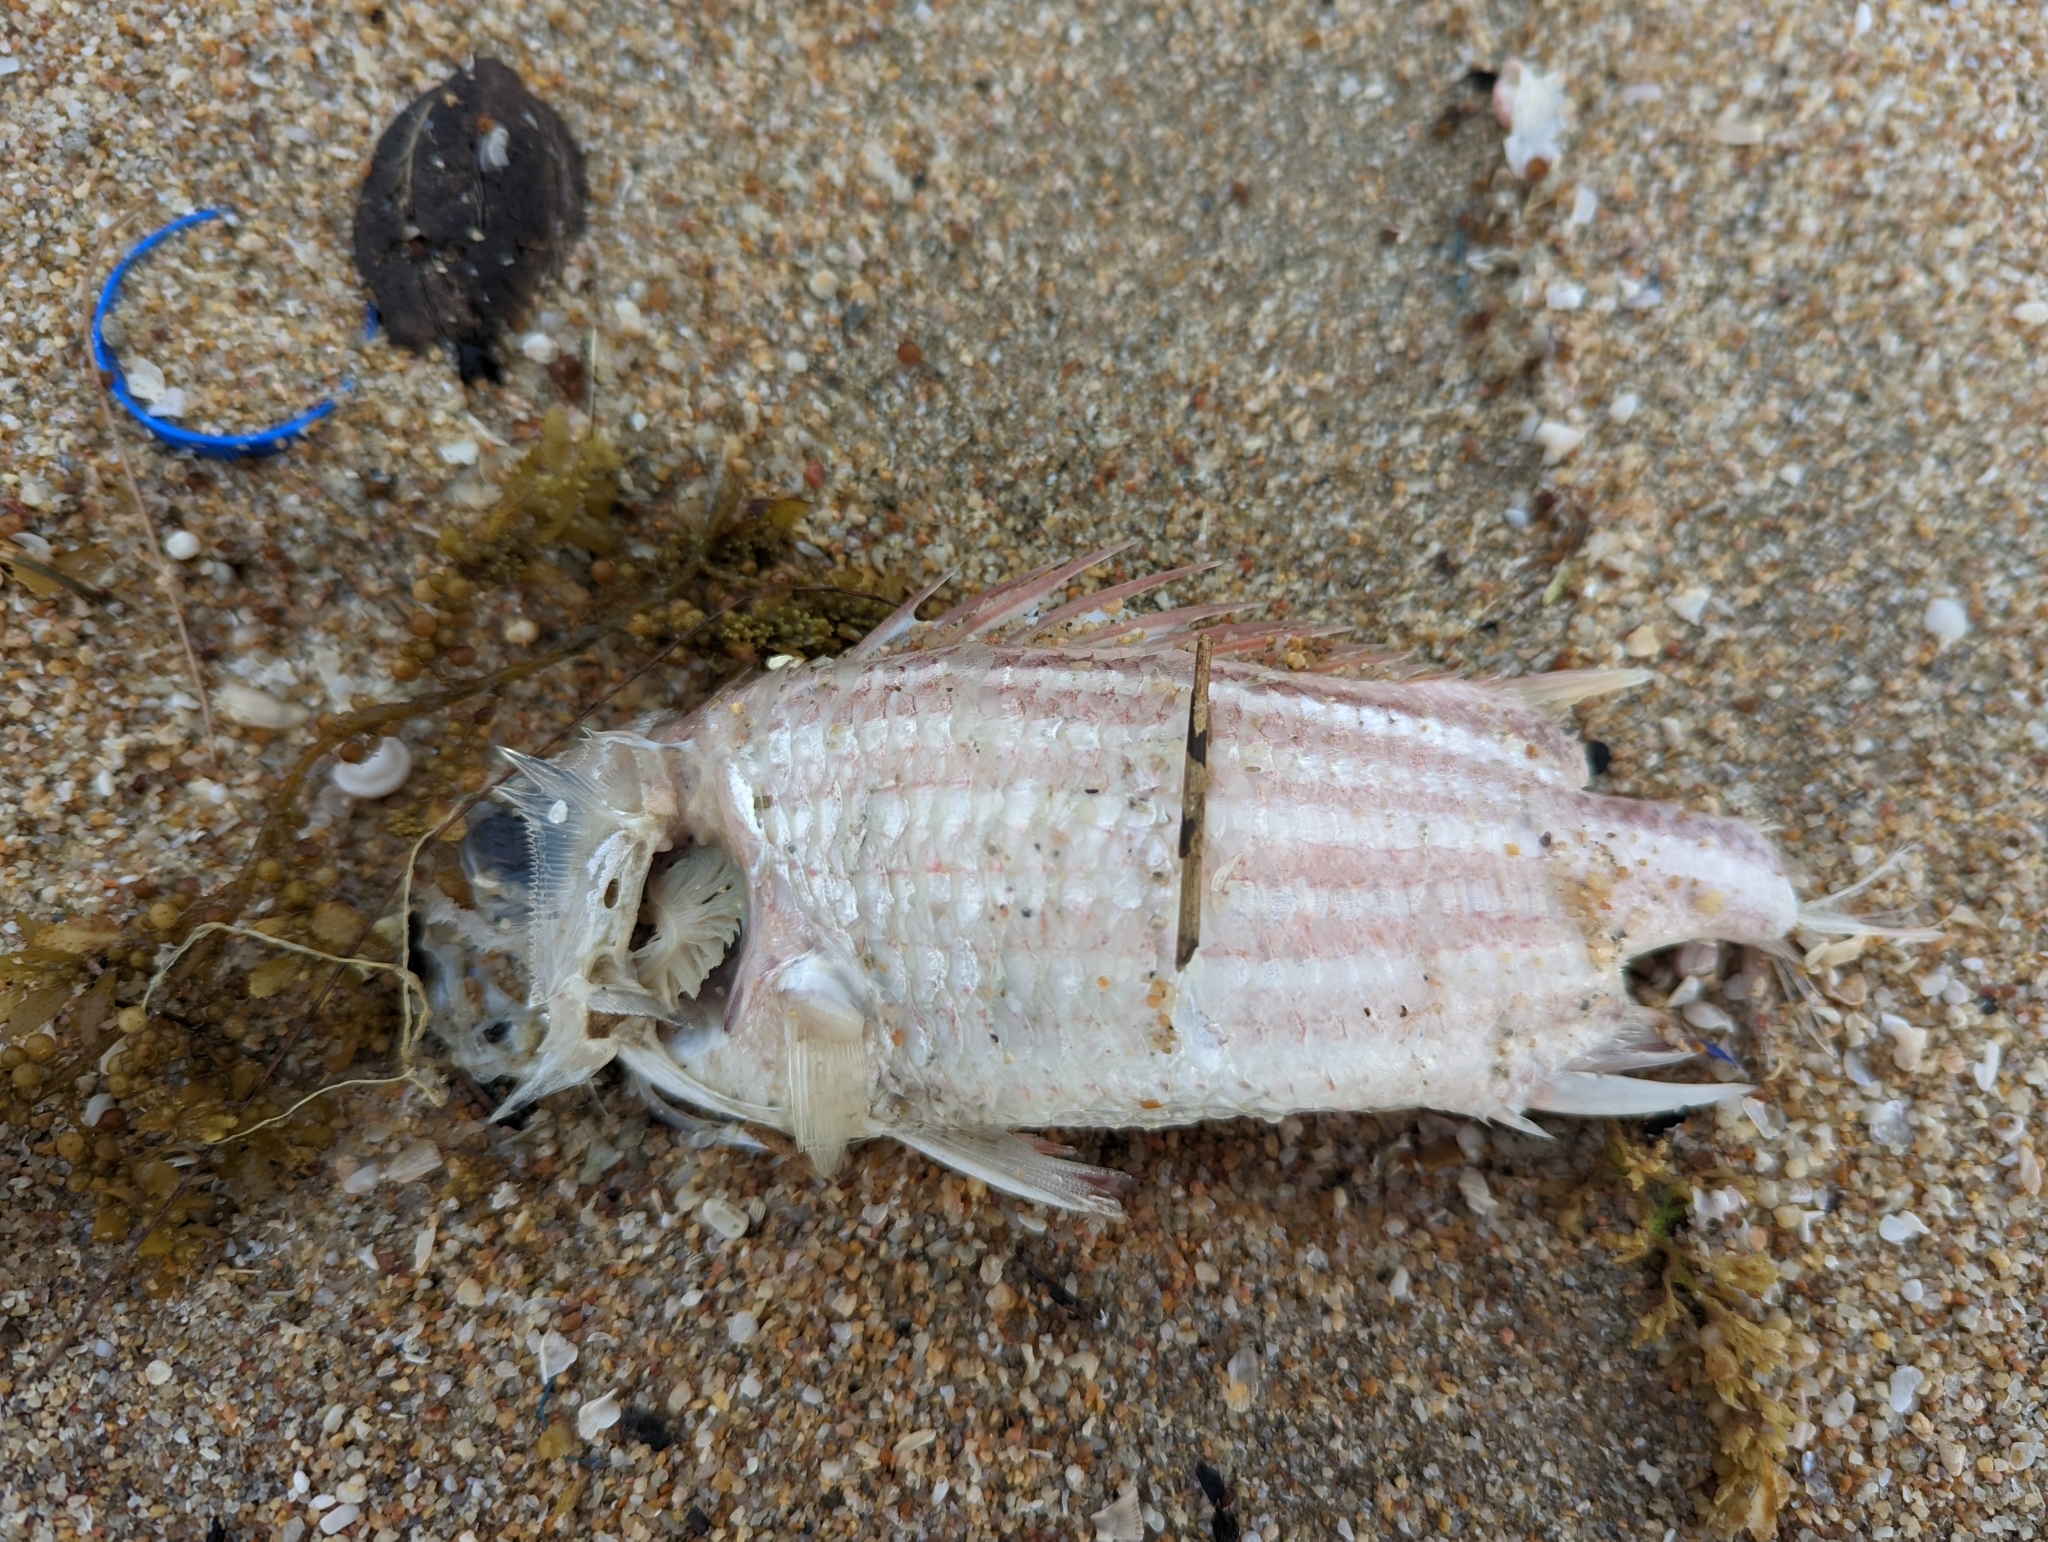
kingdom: Animalia
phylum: Chordata
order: Beryciformes
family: Holocentridae
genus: Sargocentron
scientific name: Sargocentron rubrum
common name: Redcoat
